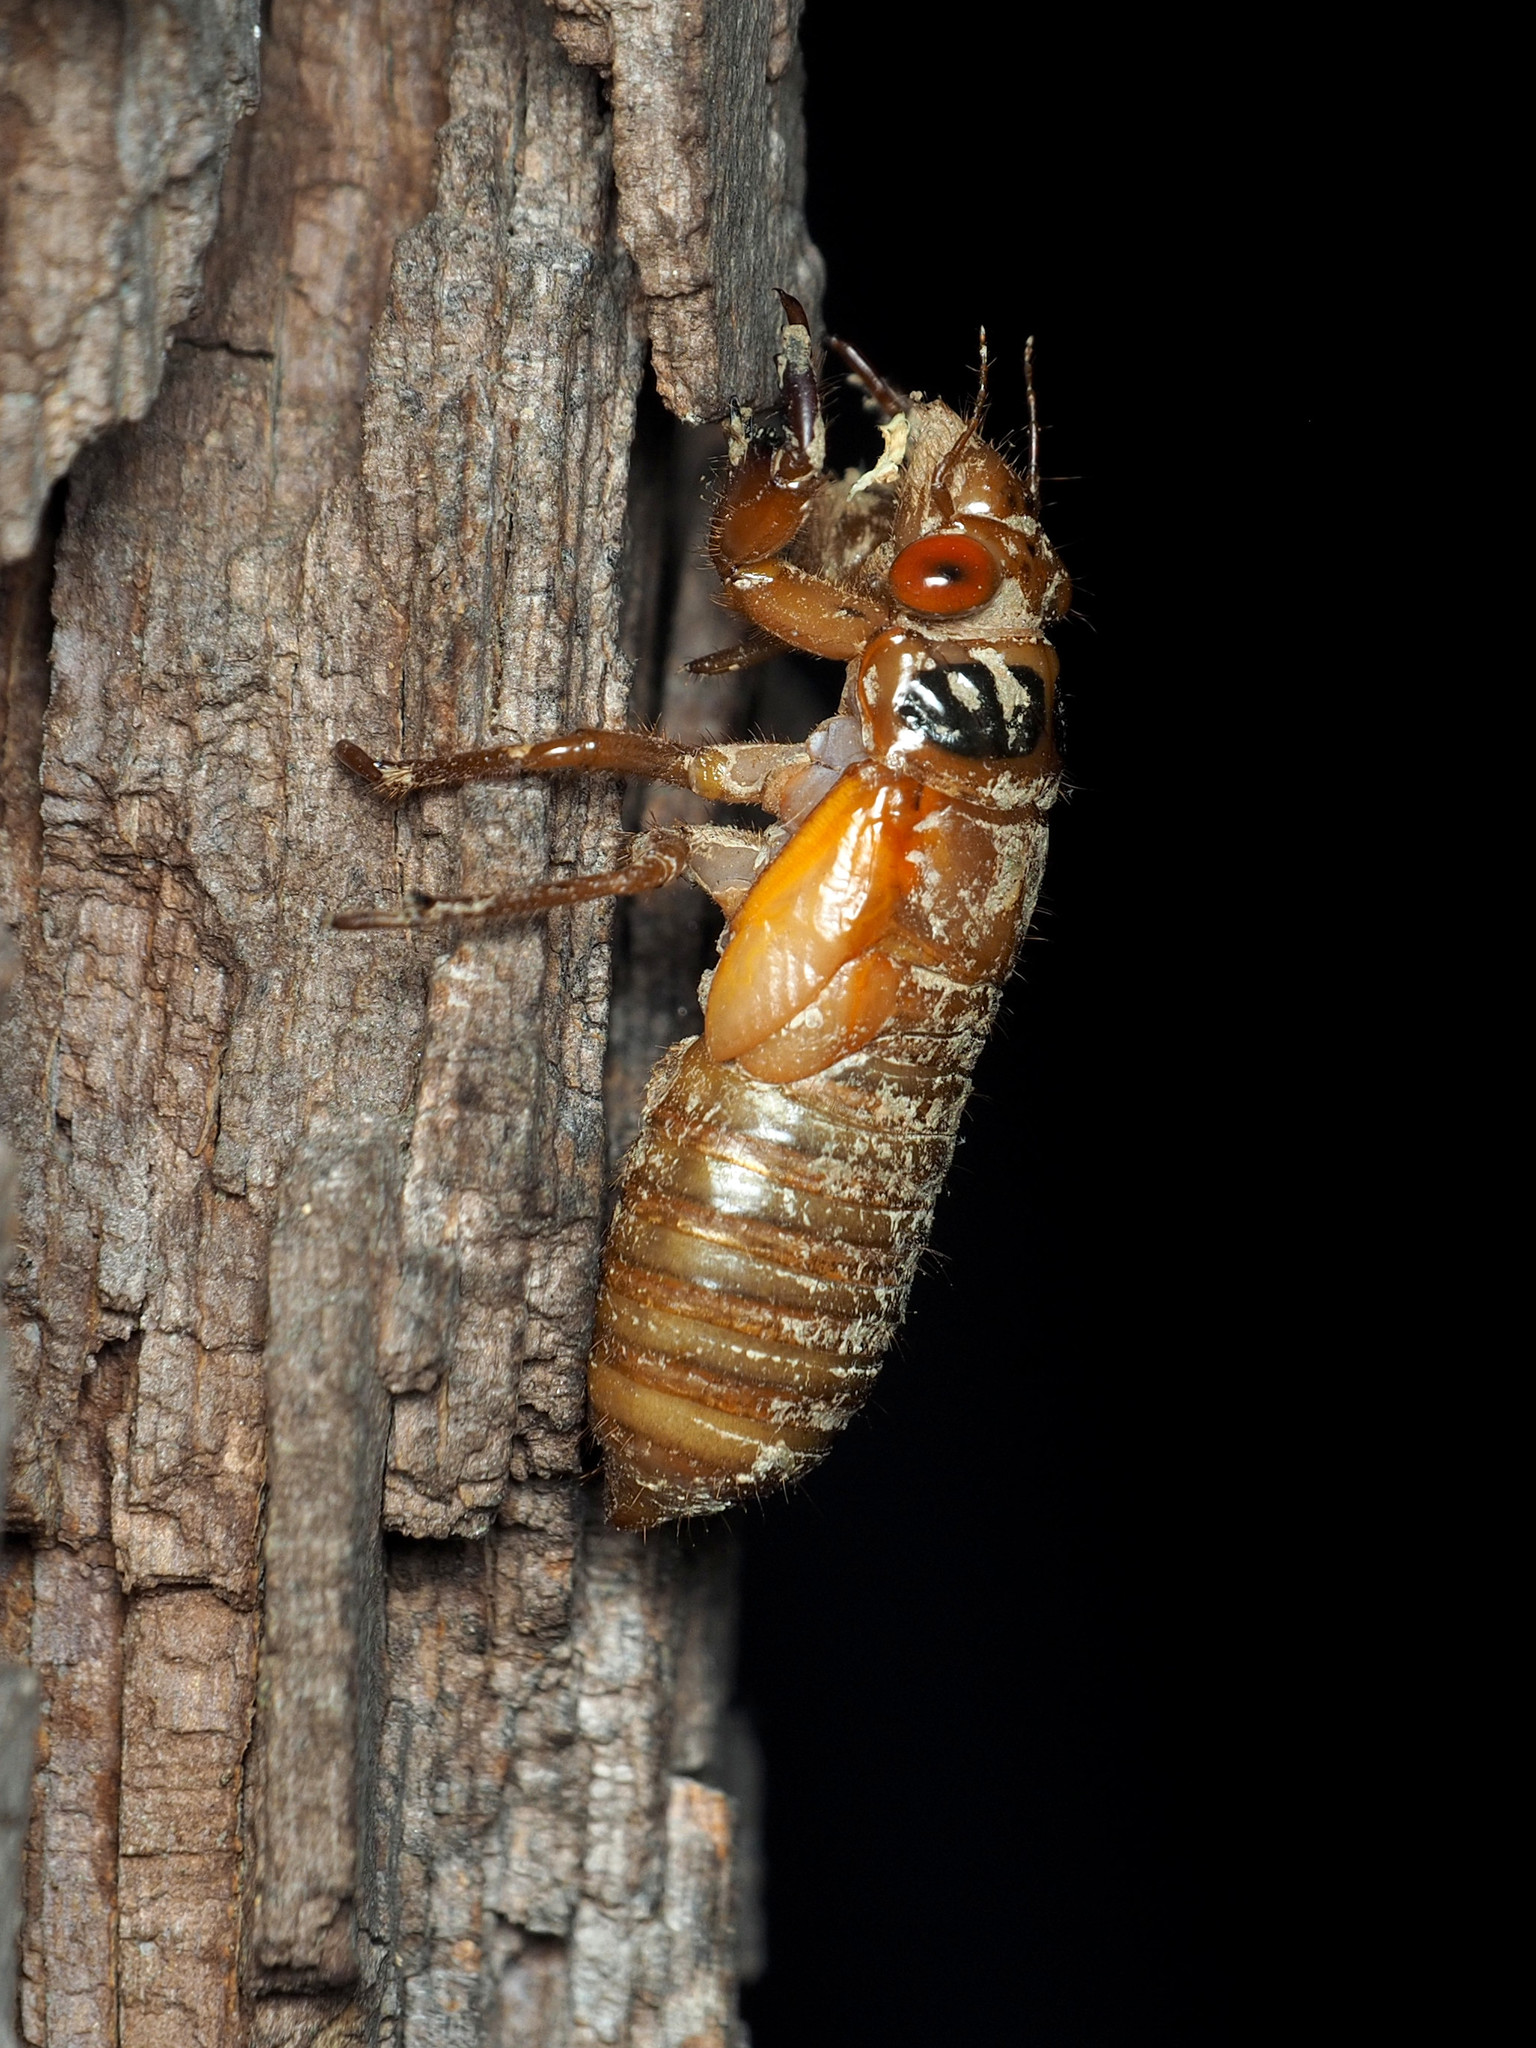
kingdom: Animalia
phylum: Arthropoda
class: Insecta
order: Hemiptera
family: Cicadidae
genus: Magicicada
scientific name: Magicicada
